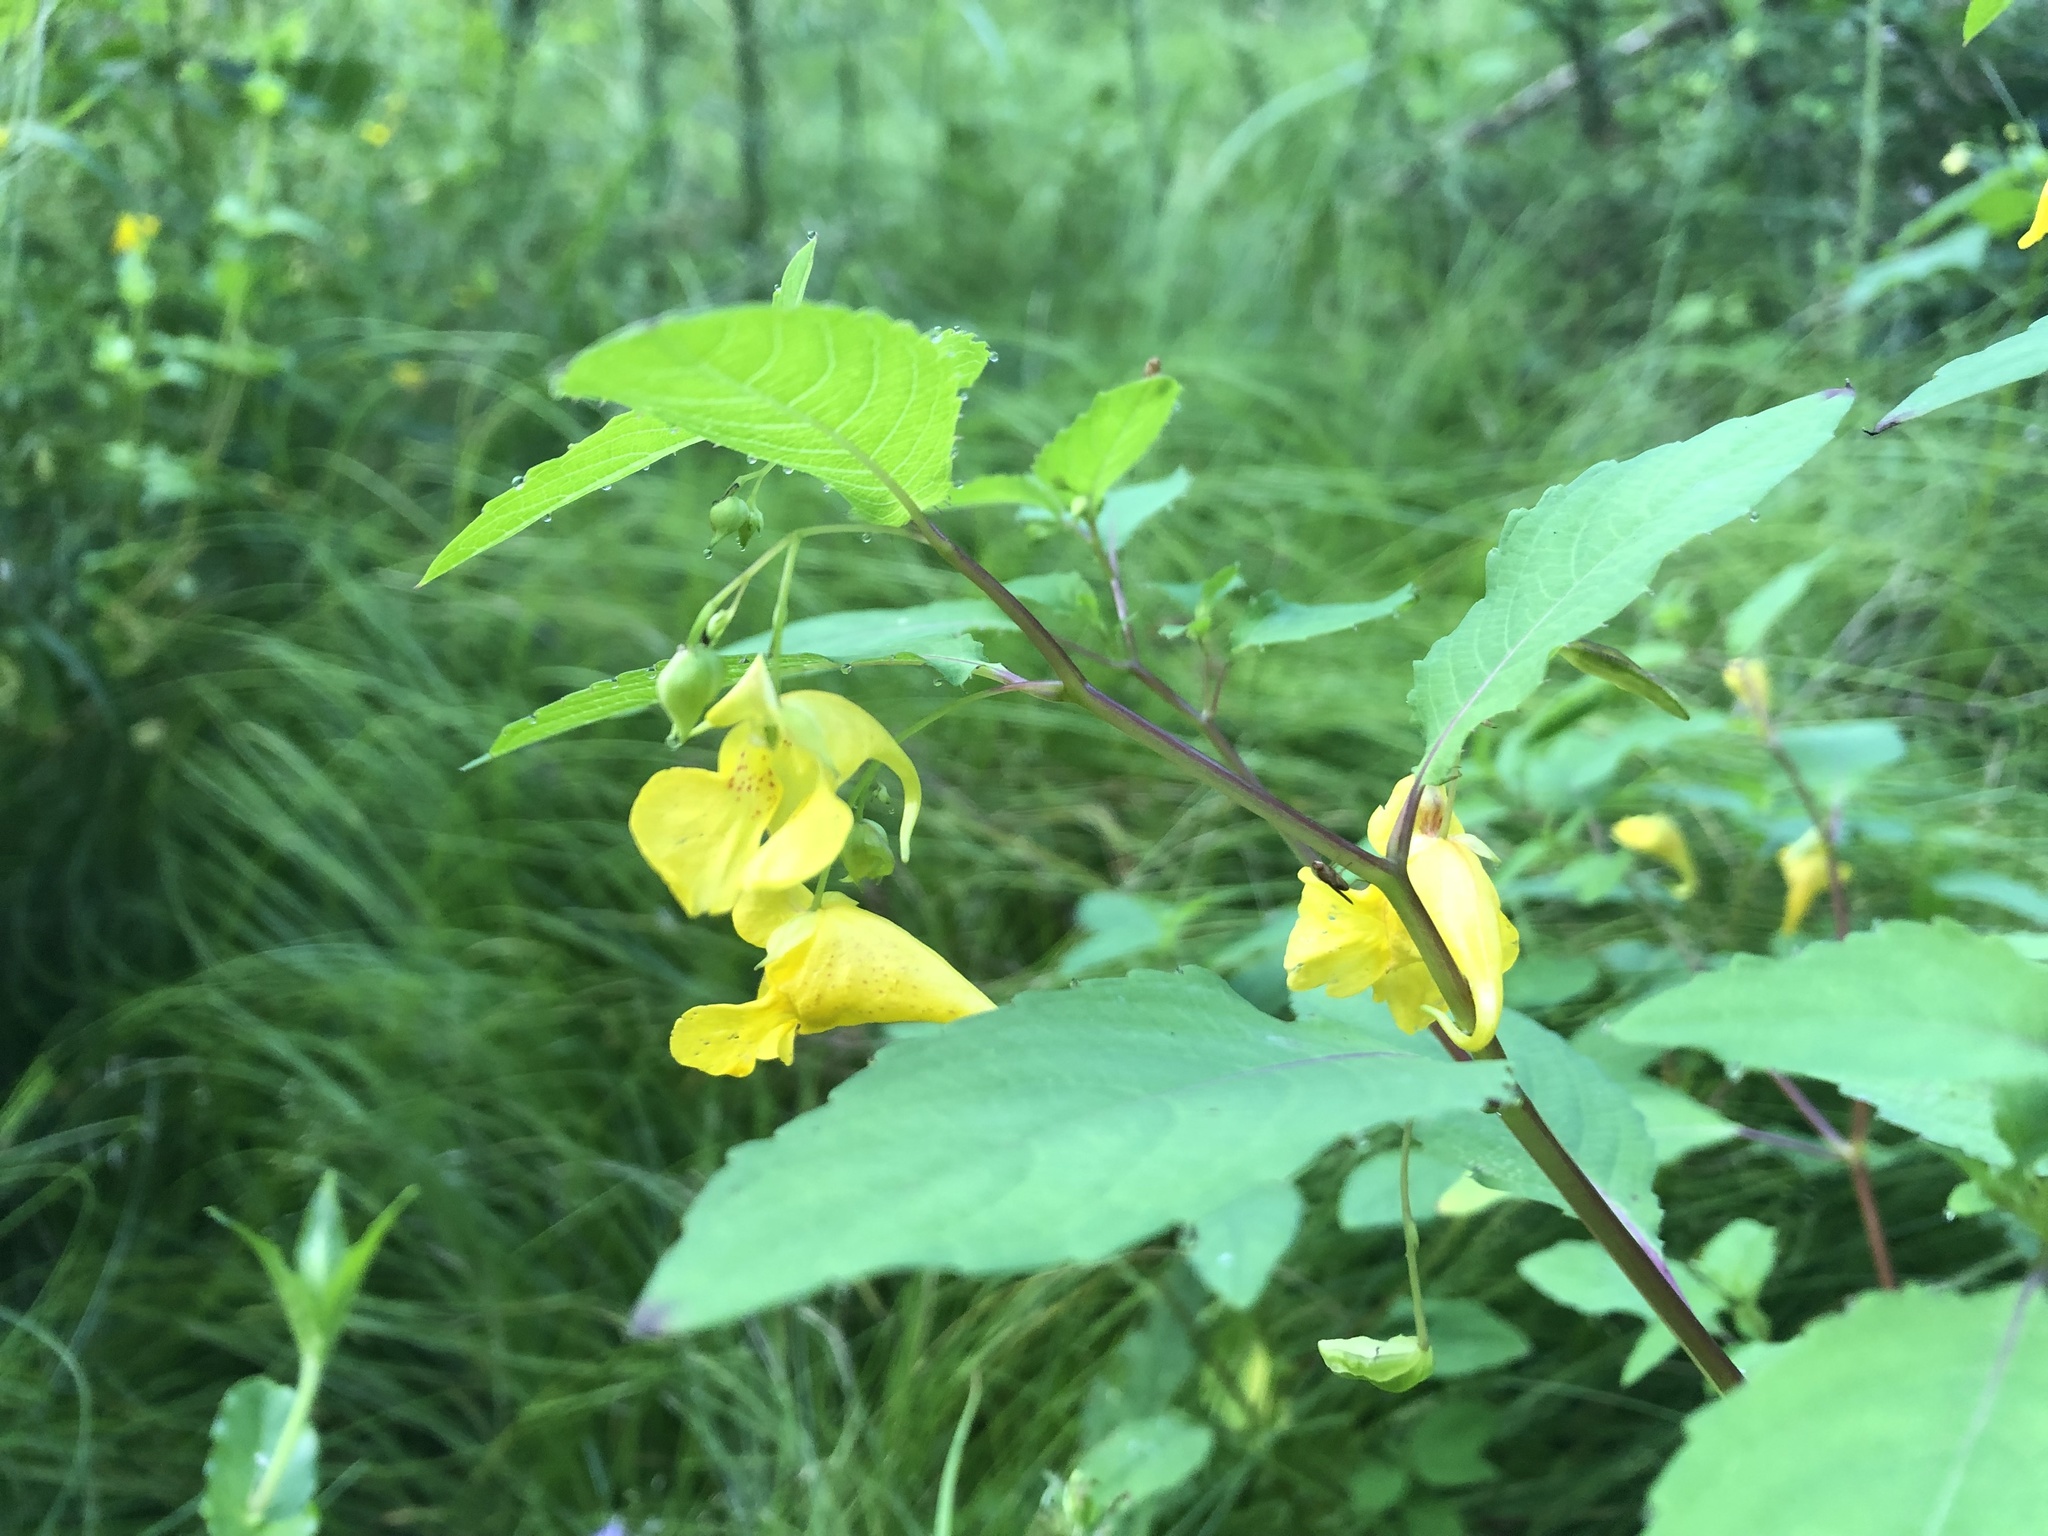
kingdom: Plantae
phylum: Tracheophyta
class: Magnoliopsida
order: Ericales
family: Balsaminaceae
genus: Impatiens
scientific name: Impatiens noli-tangere
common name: Touch-me-not balsam
